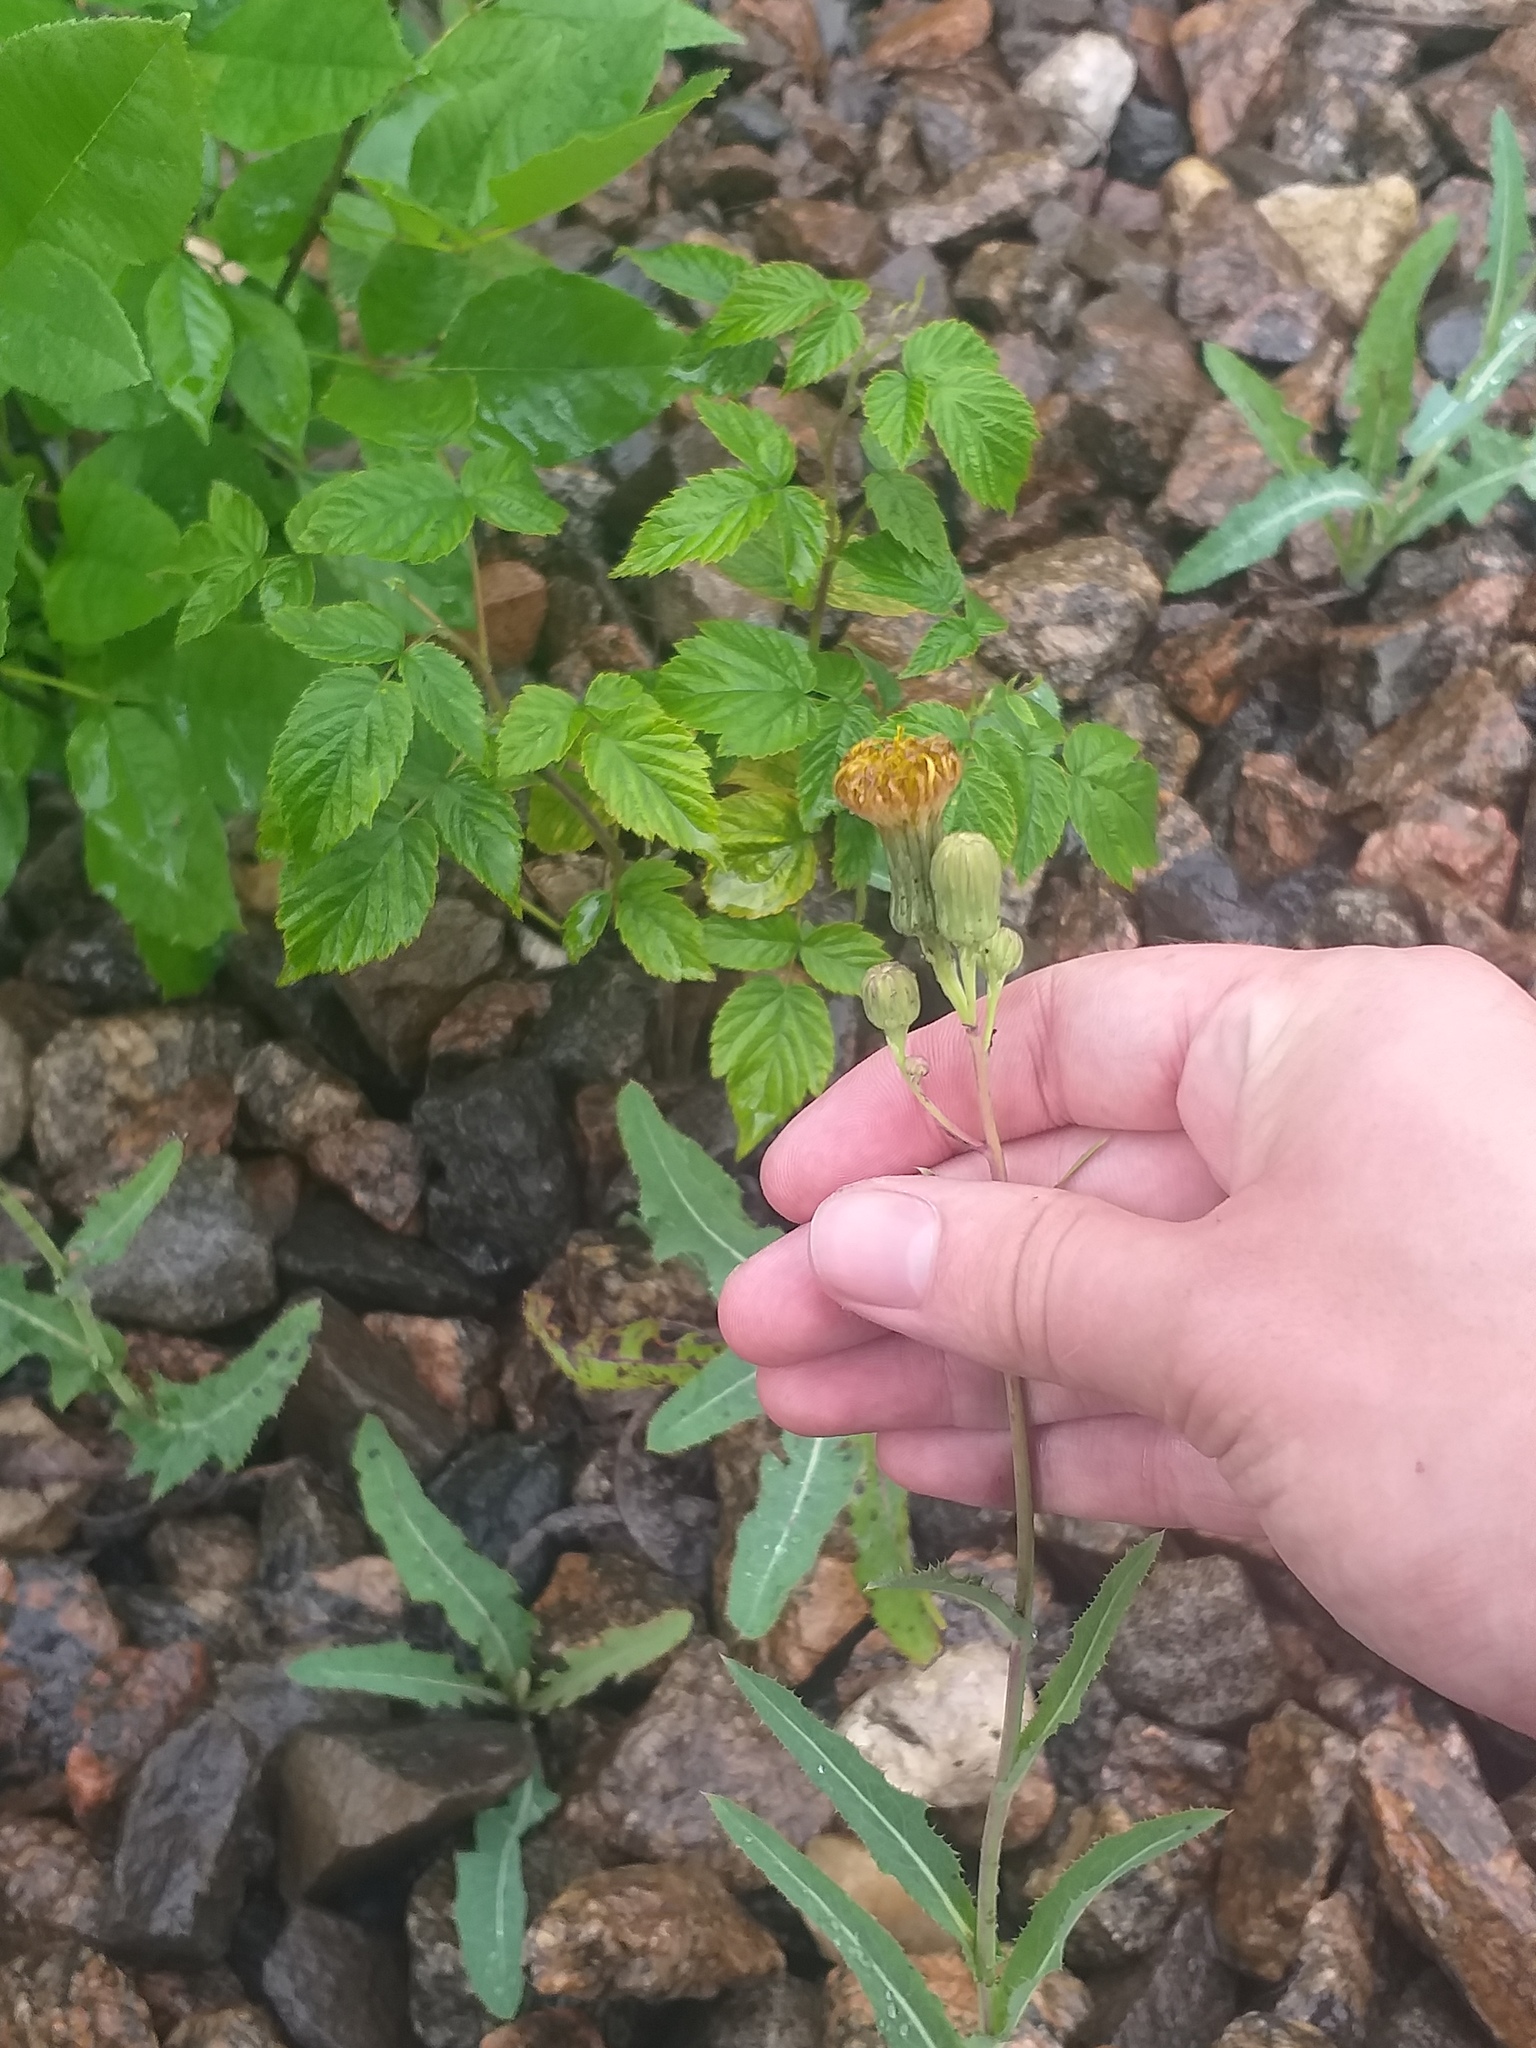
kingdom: Plantae
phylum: Tracheophyta
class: Magnoliopsida
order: Asterales
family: Asteraceae
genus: Sonchus
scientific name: Sonchus arvensis
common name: Perennial sow-thistle
